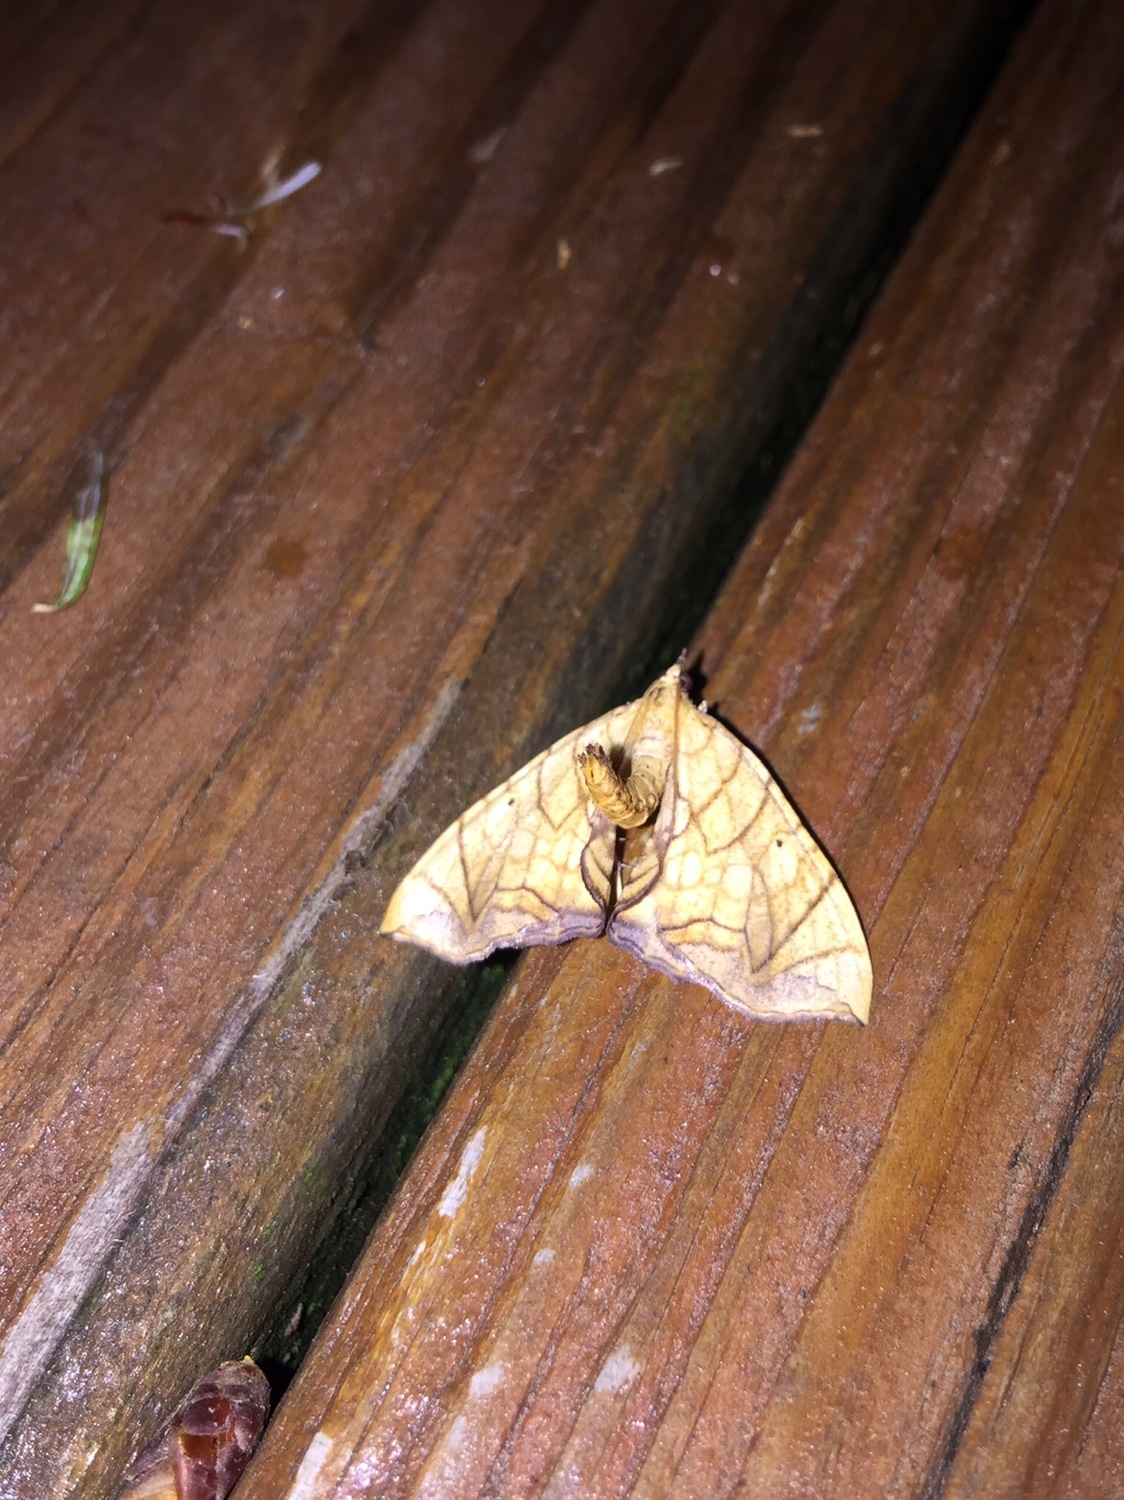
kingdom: Animalia
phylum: Arthropoda
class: Insecta
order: Lepidoptera
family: Geometridae
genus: Eulithis
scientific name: Eulithis gracilineata
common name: Greater grapevine looper moth
